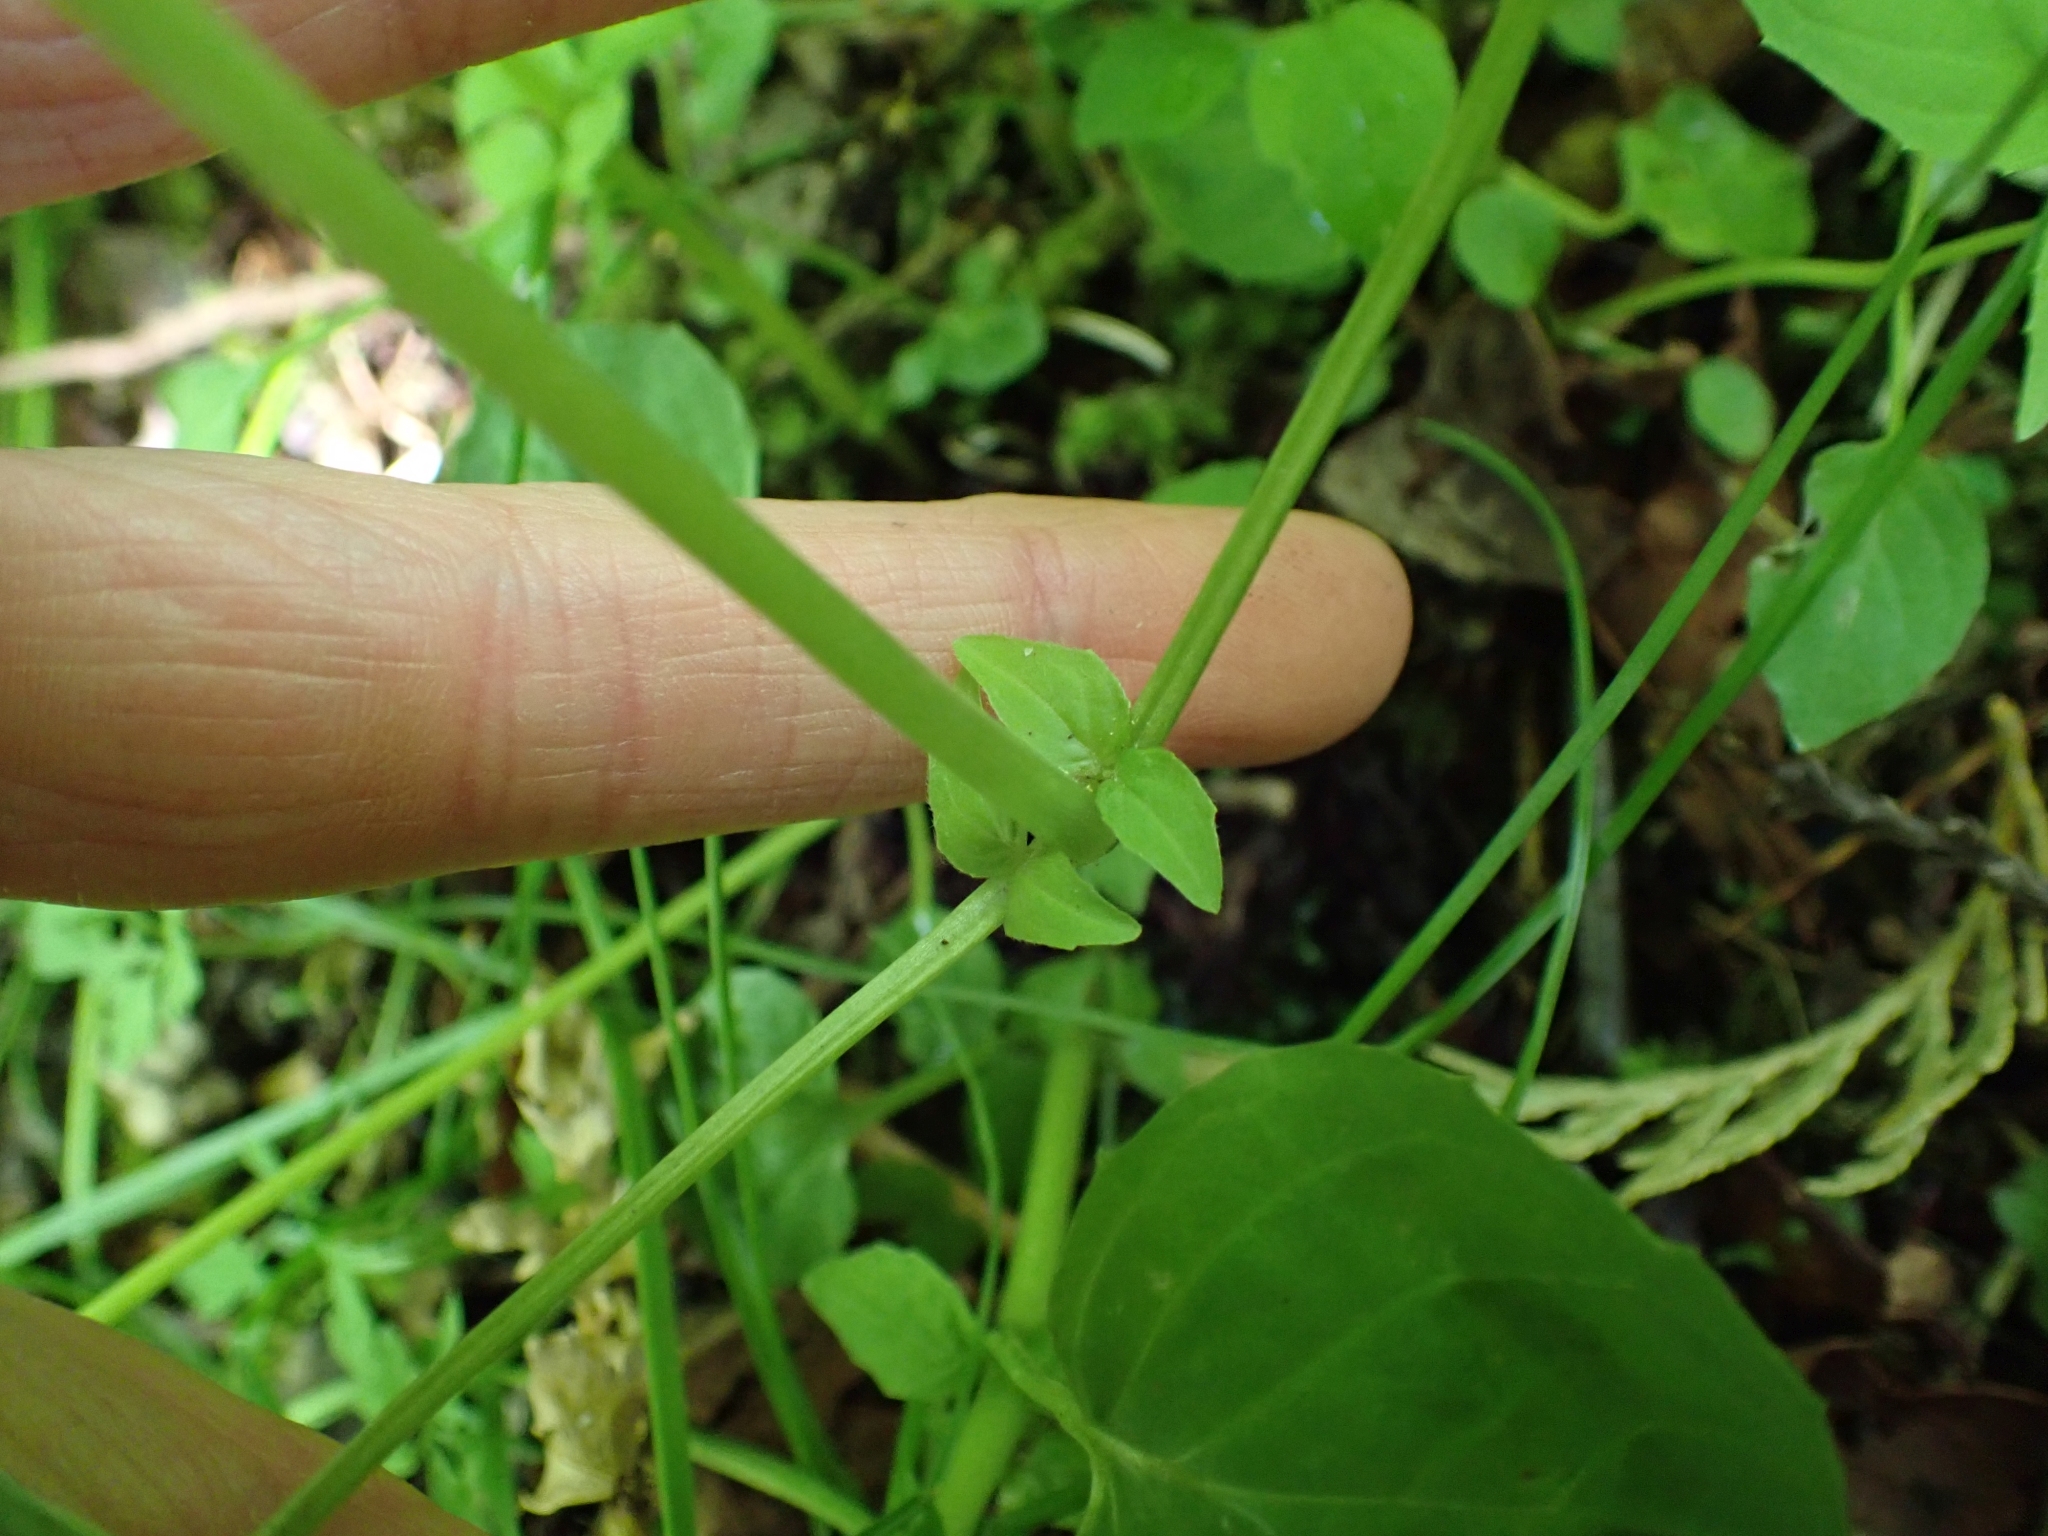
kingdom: Plantae
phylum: Tracheophyta
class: Magnoliopsida
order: Myrtales
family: Onagraceae
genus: Circaea
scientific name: Circaea alpina
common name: Alpine enchanter's-nightshade
